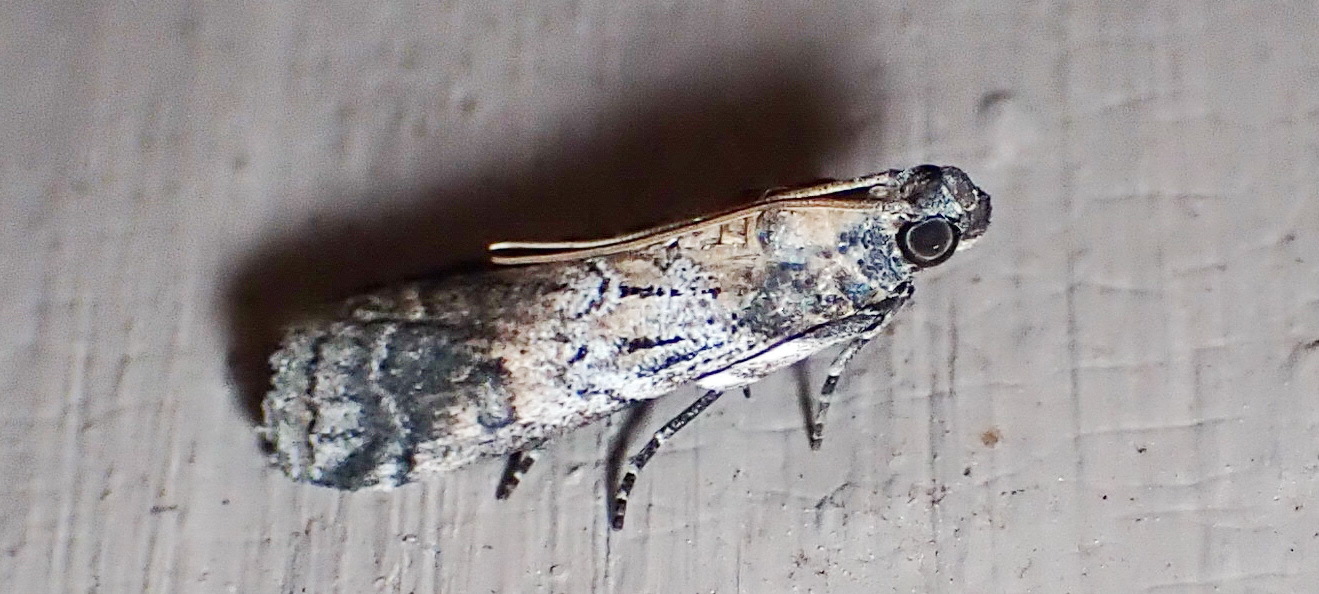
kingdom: Animalia
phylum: Arthropoda
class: Insecta
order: Lepidoptera
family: Pyralidae
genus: Chararica
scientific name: Chararica hystriculella
